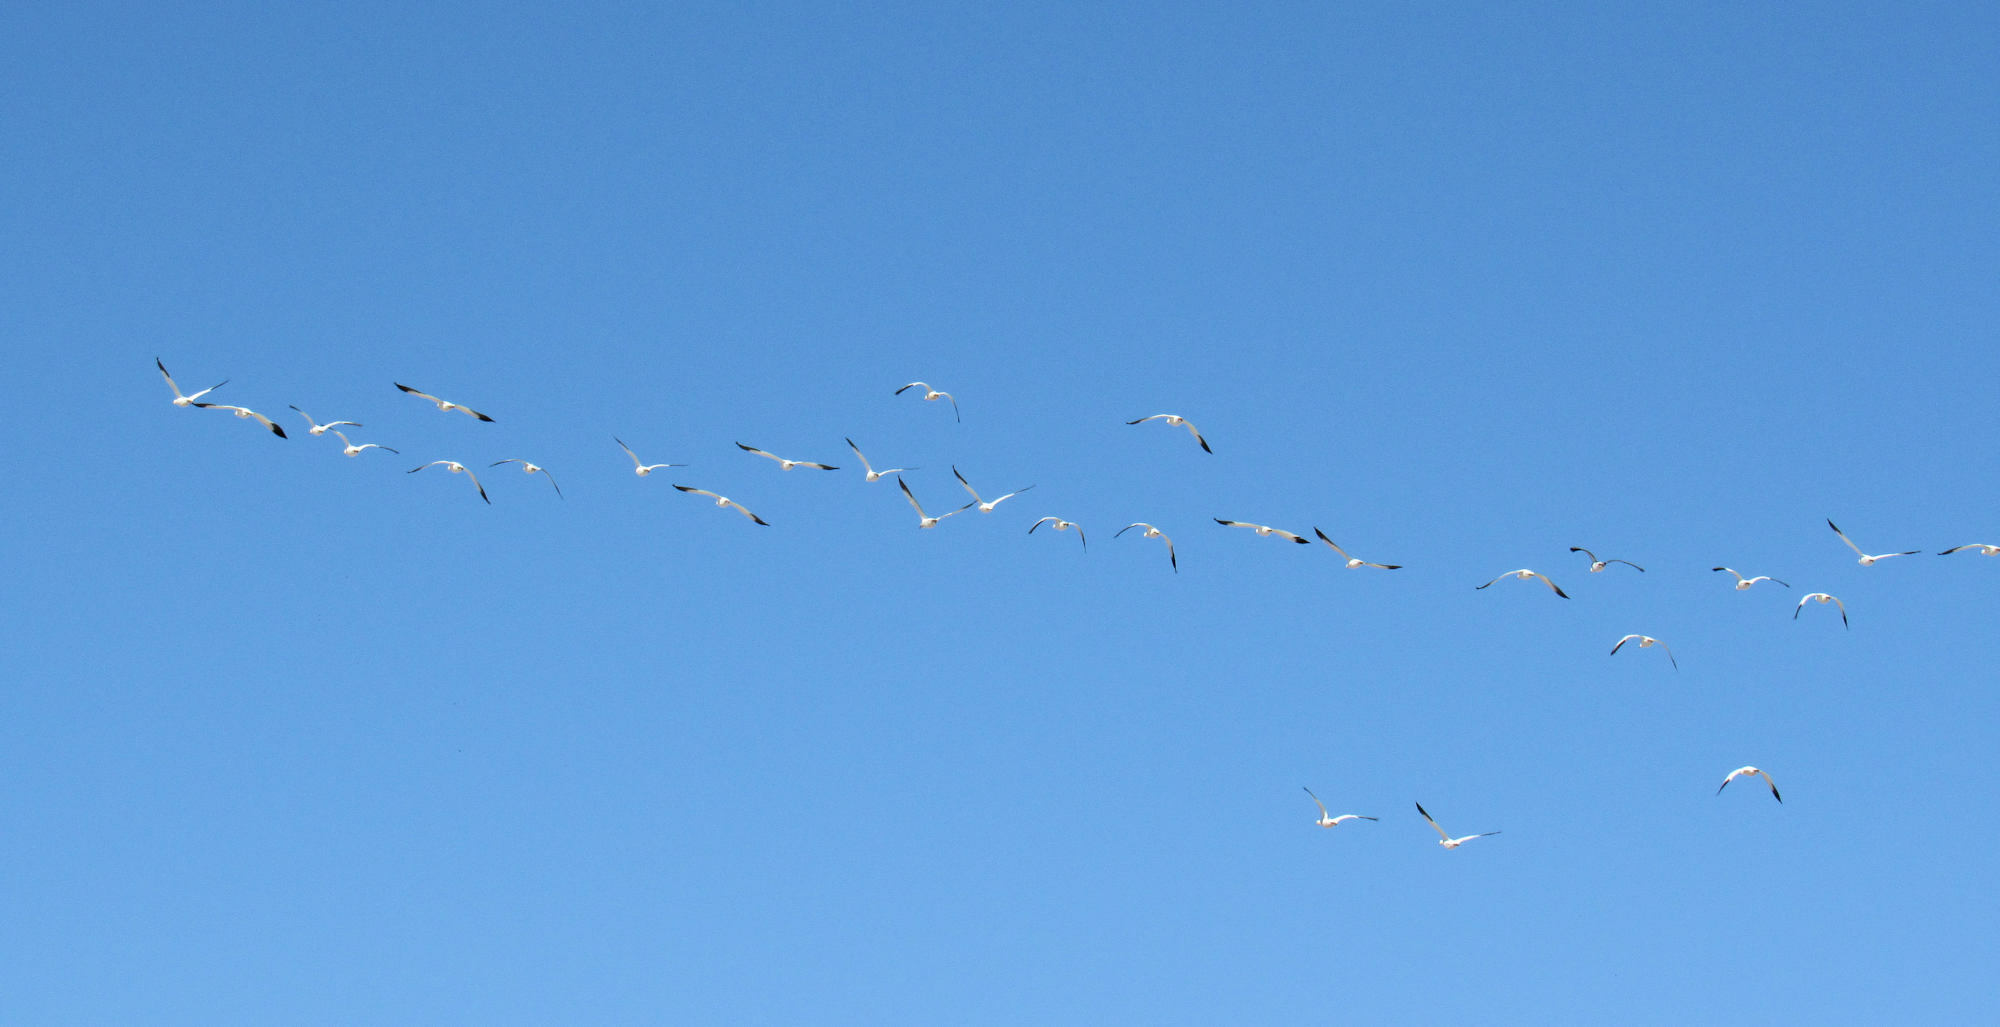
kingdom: Animalia
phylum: Chordata
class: Aves
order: Anseriformes
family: Anatidae
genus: Anser
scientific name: Anser caerulescens
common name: Snow goose
